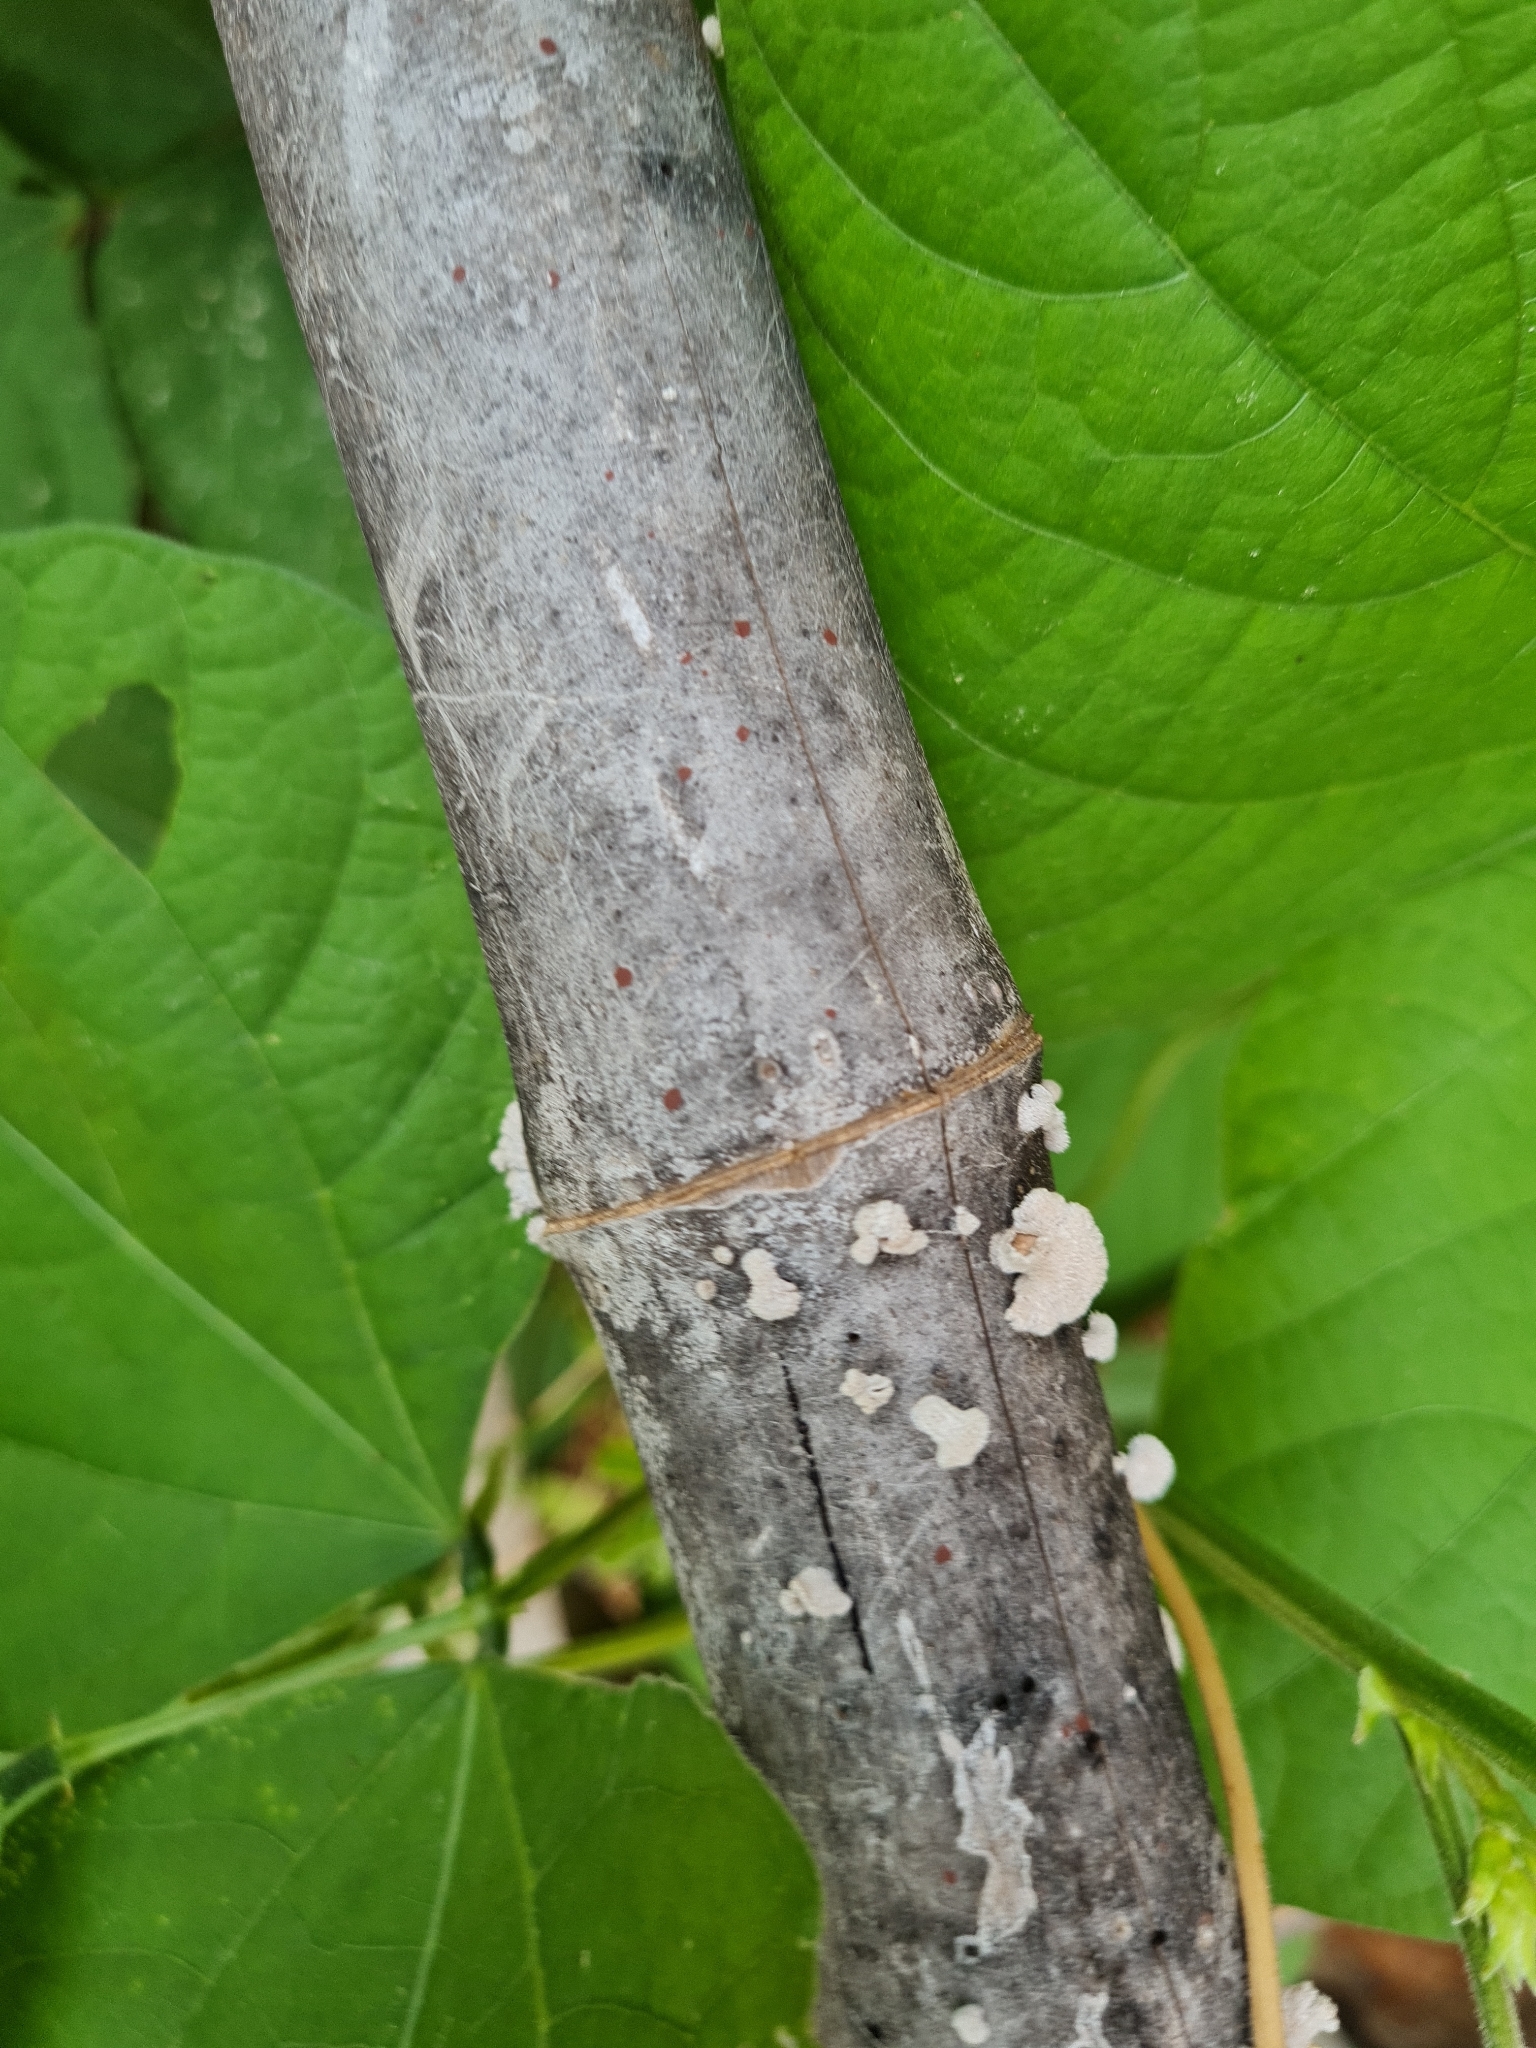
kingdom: Fungi
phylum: Basidiomycota
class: Agaricomycetes
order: Agaricales
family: Schizophyllaceae
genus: Schizophyllum
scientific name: Schizophyllum commune
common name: Common porecrust
